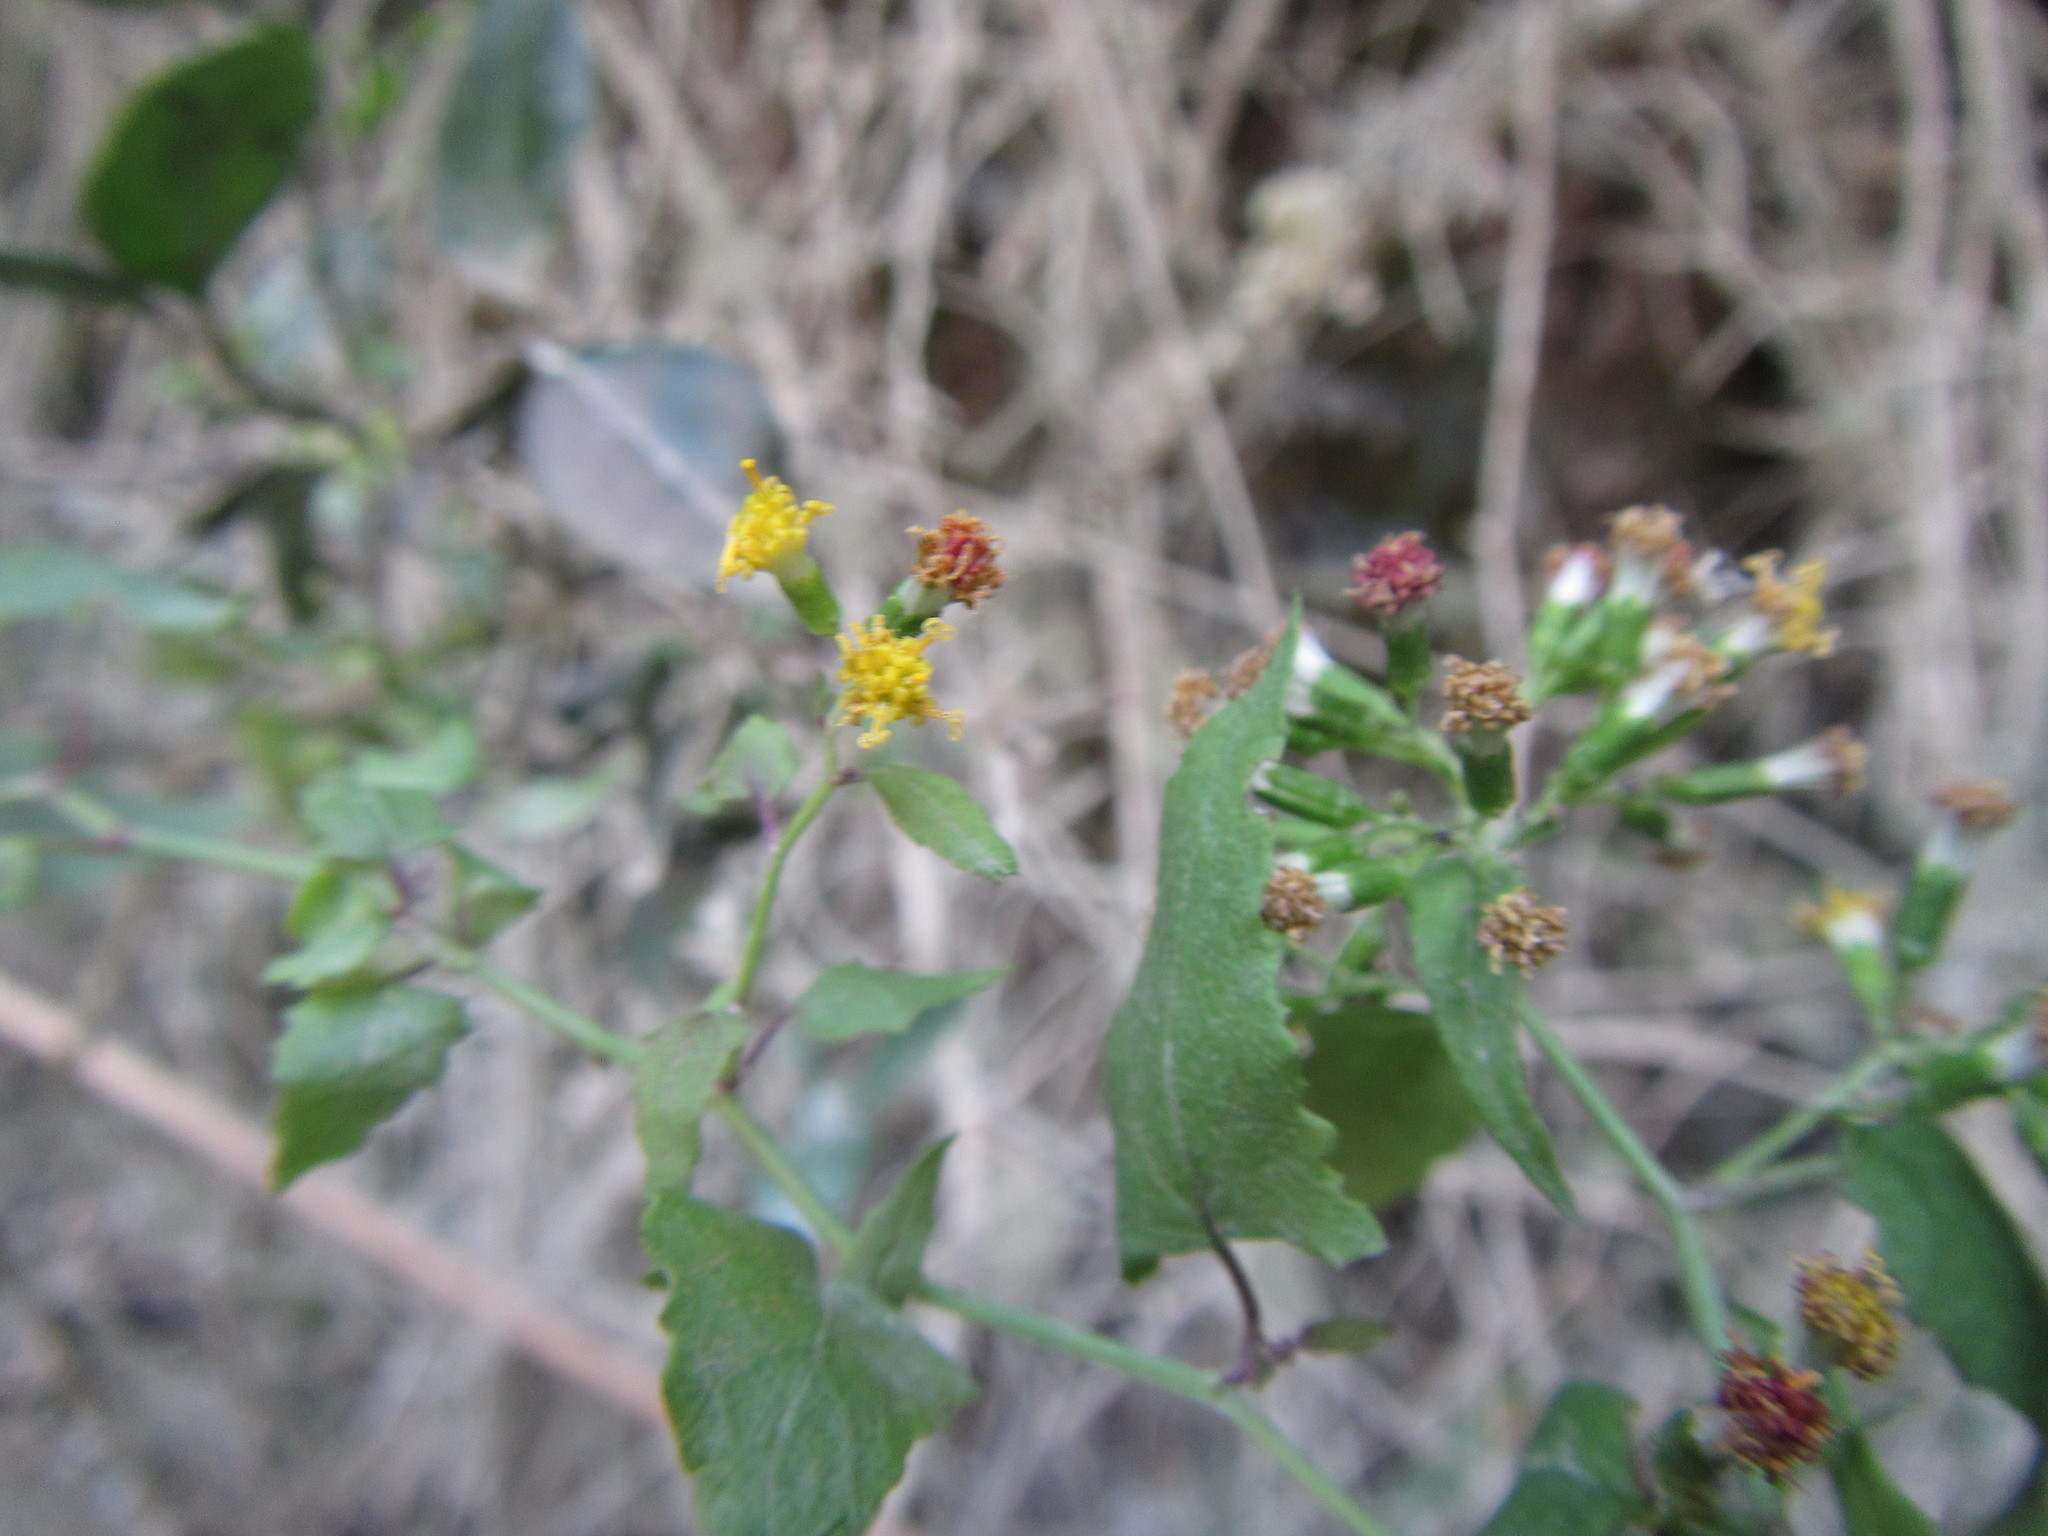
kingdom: Plantae
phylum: Tracheophyta
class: Magnoliopsida
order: Asterales
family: Asteraceae
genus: Senecio
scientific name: Senecio deltoideus
